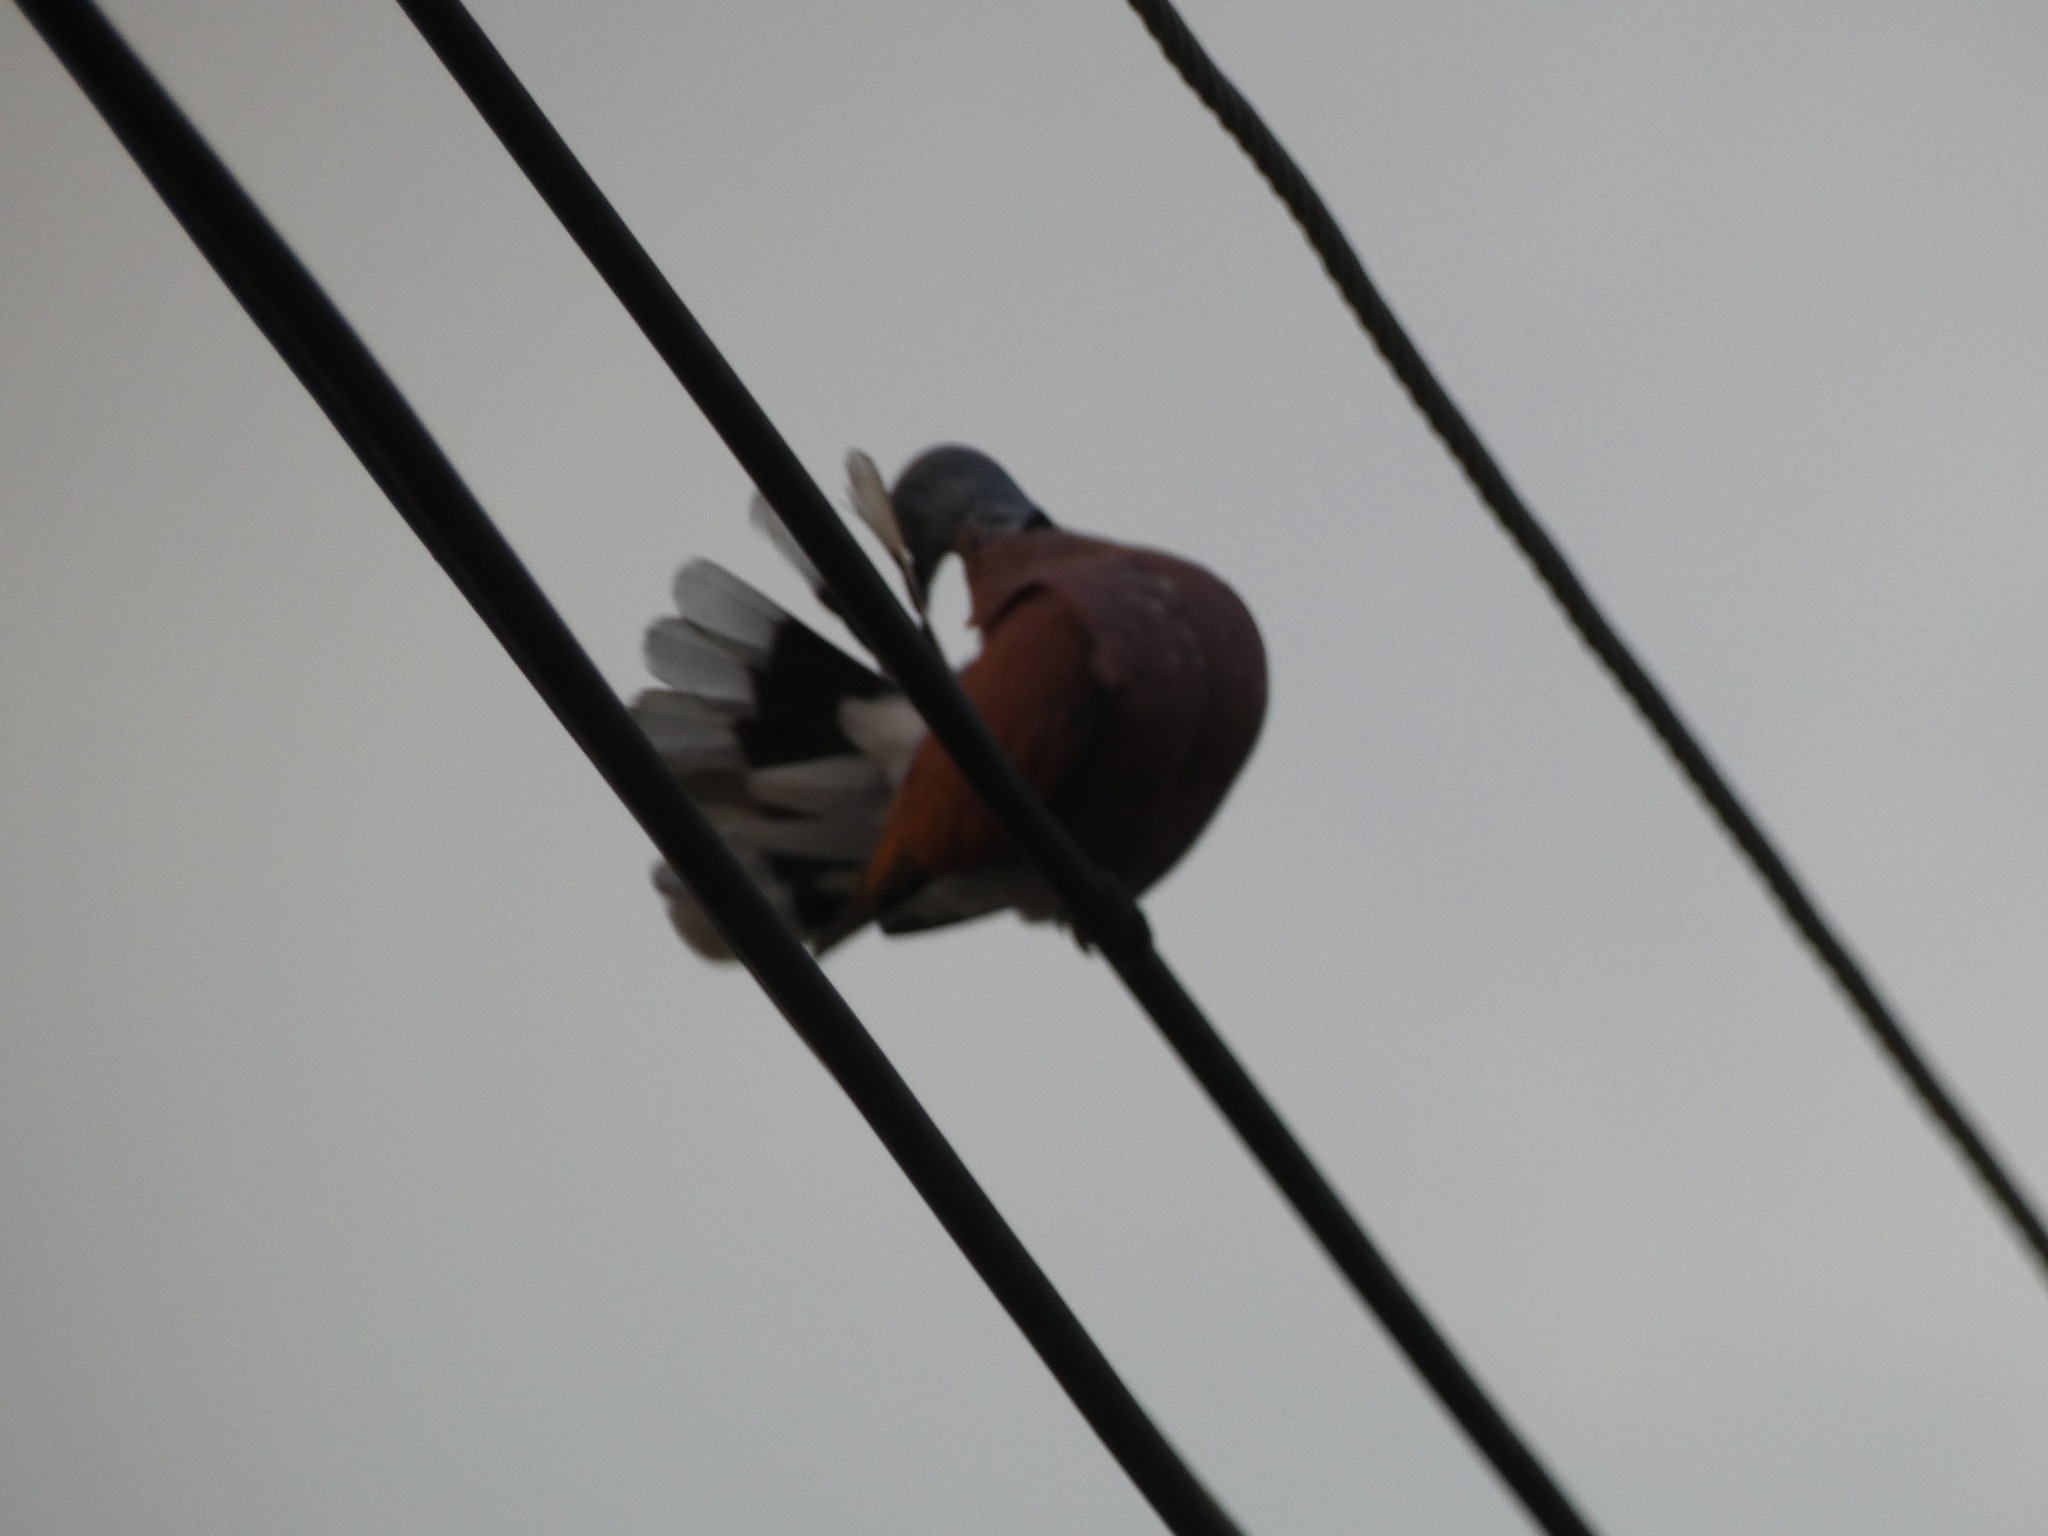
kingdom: Animalia
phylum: Chordata
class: Aves
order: Columbiformes
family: Columbidae
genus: Streptopelia
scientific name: Streptopelia tranquebarica
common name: Red turtle dove
